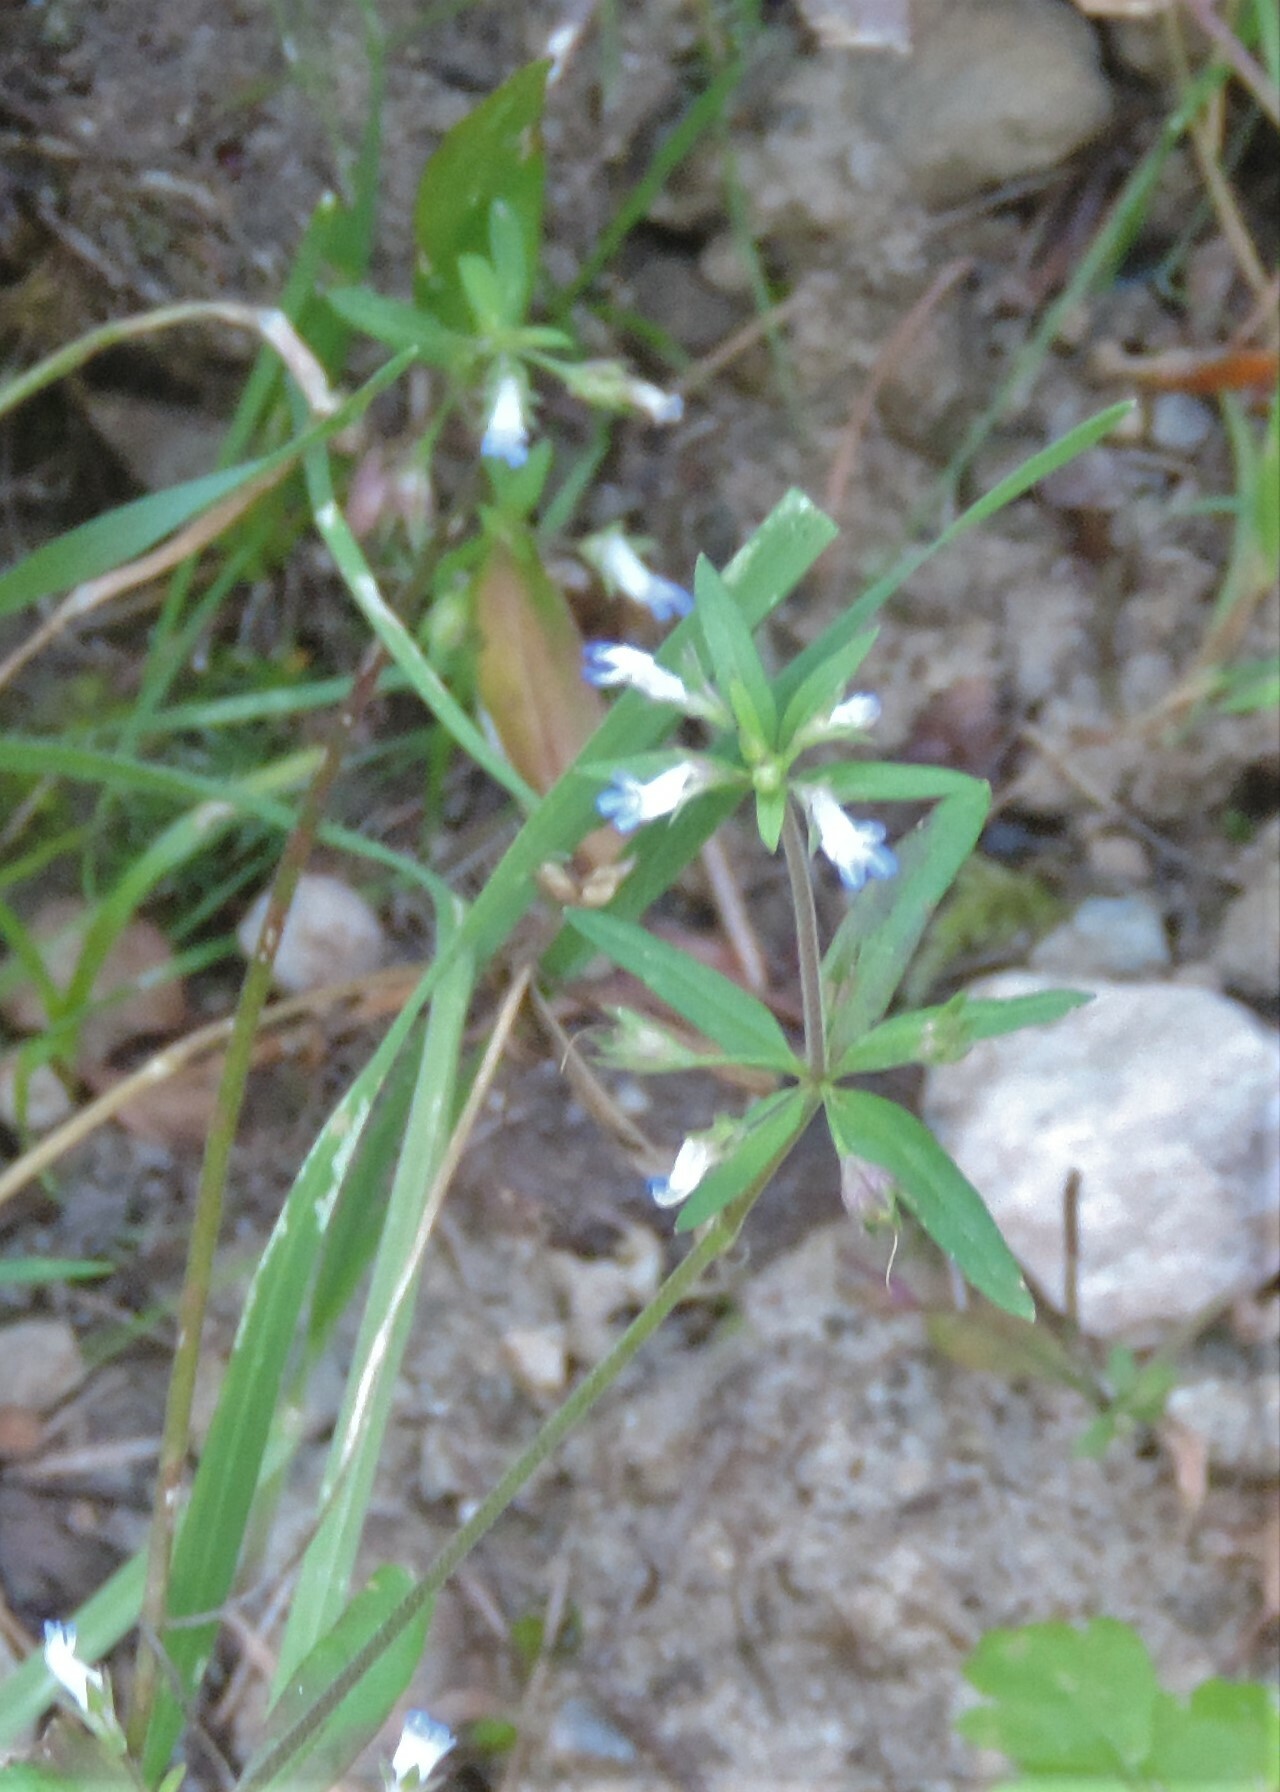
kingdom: Plantae
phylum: Tracheophyta
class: Magnoliopsida
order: Lamiales
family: Plantaginaceae
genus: Collinsia
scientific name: Collinsia parviflora
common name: Blue-lips
